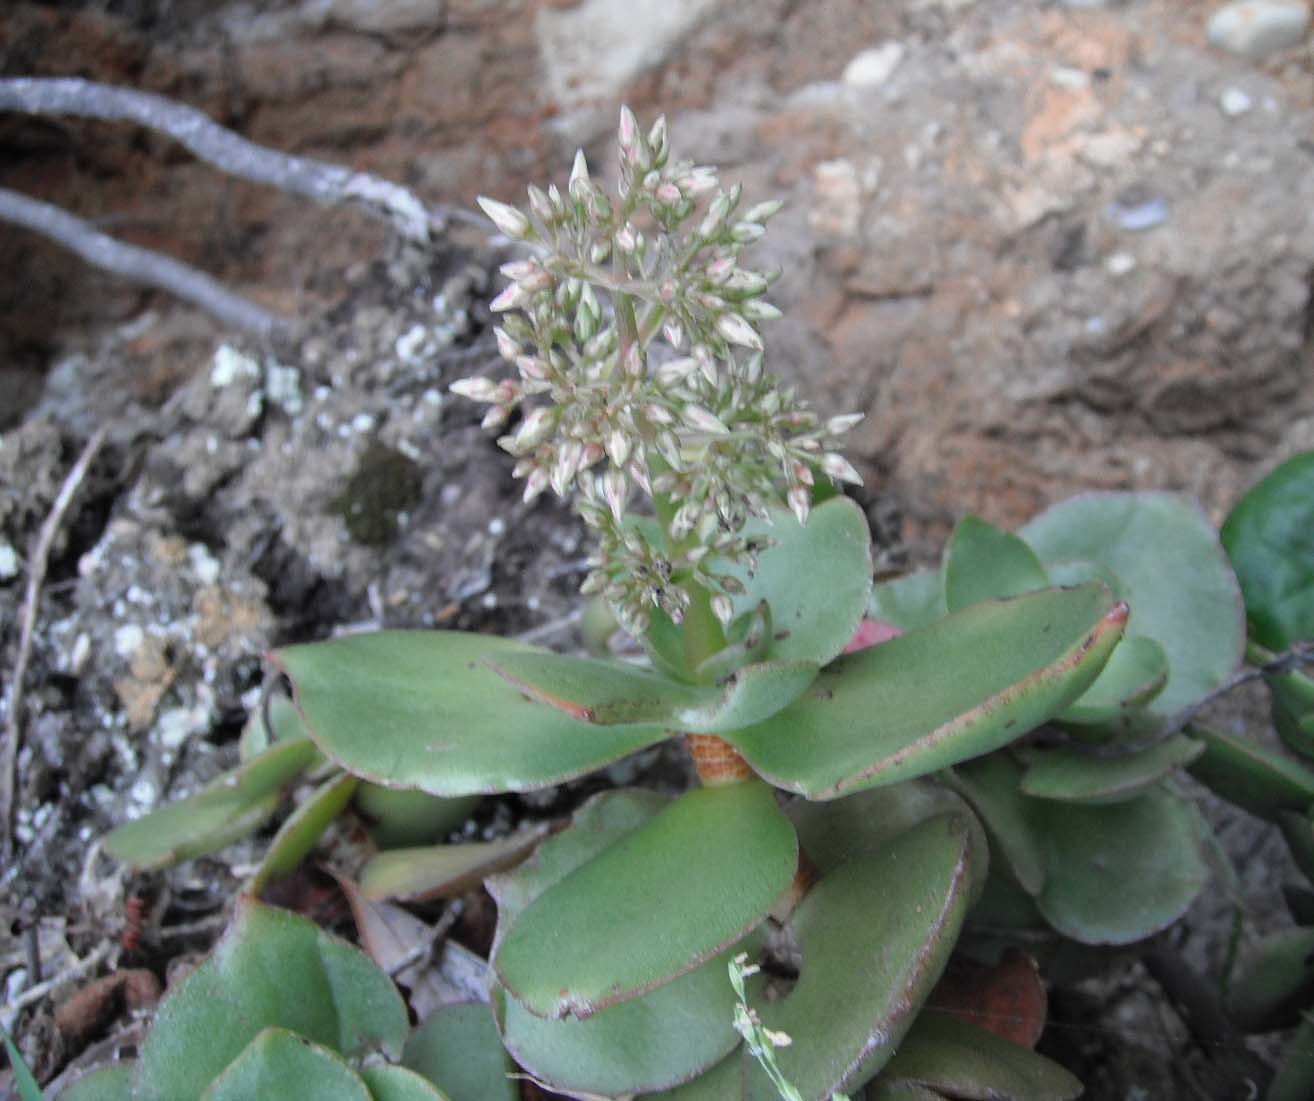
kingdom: Plantae
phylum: Tracheophyta
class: Magnoliopsida
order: Saxifragales
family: Crassulaceae
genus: Crassula
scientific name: Crassula lactea
